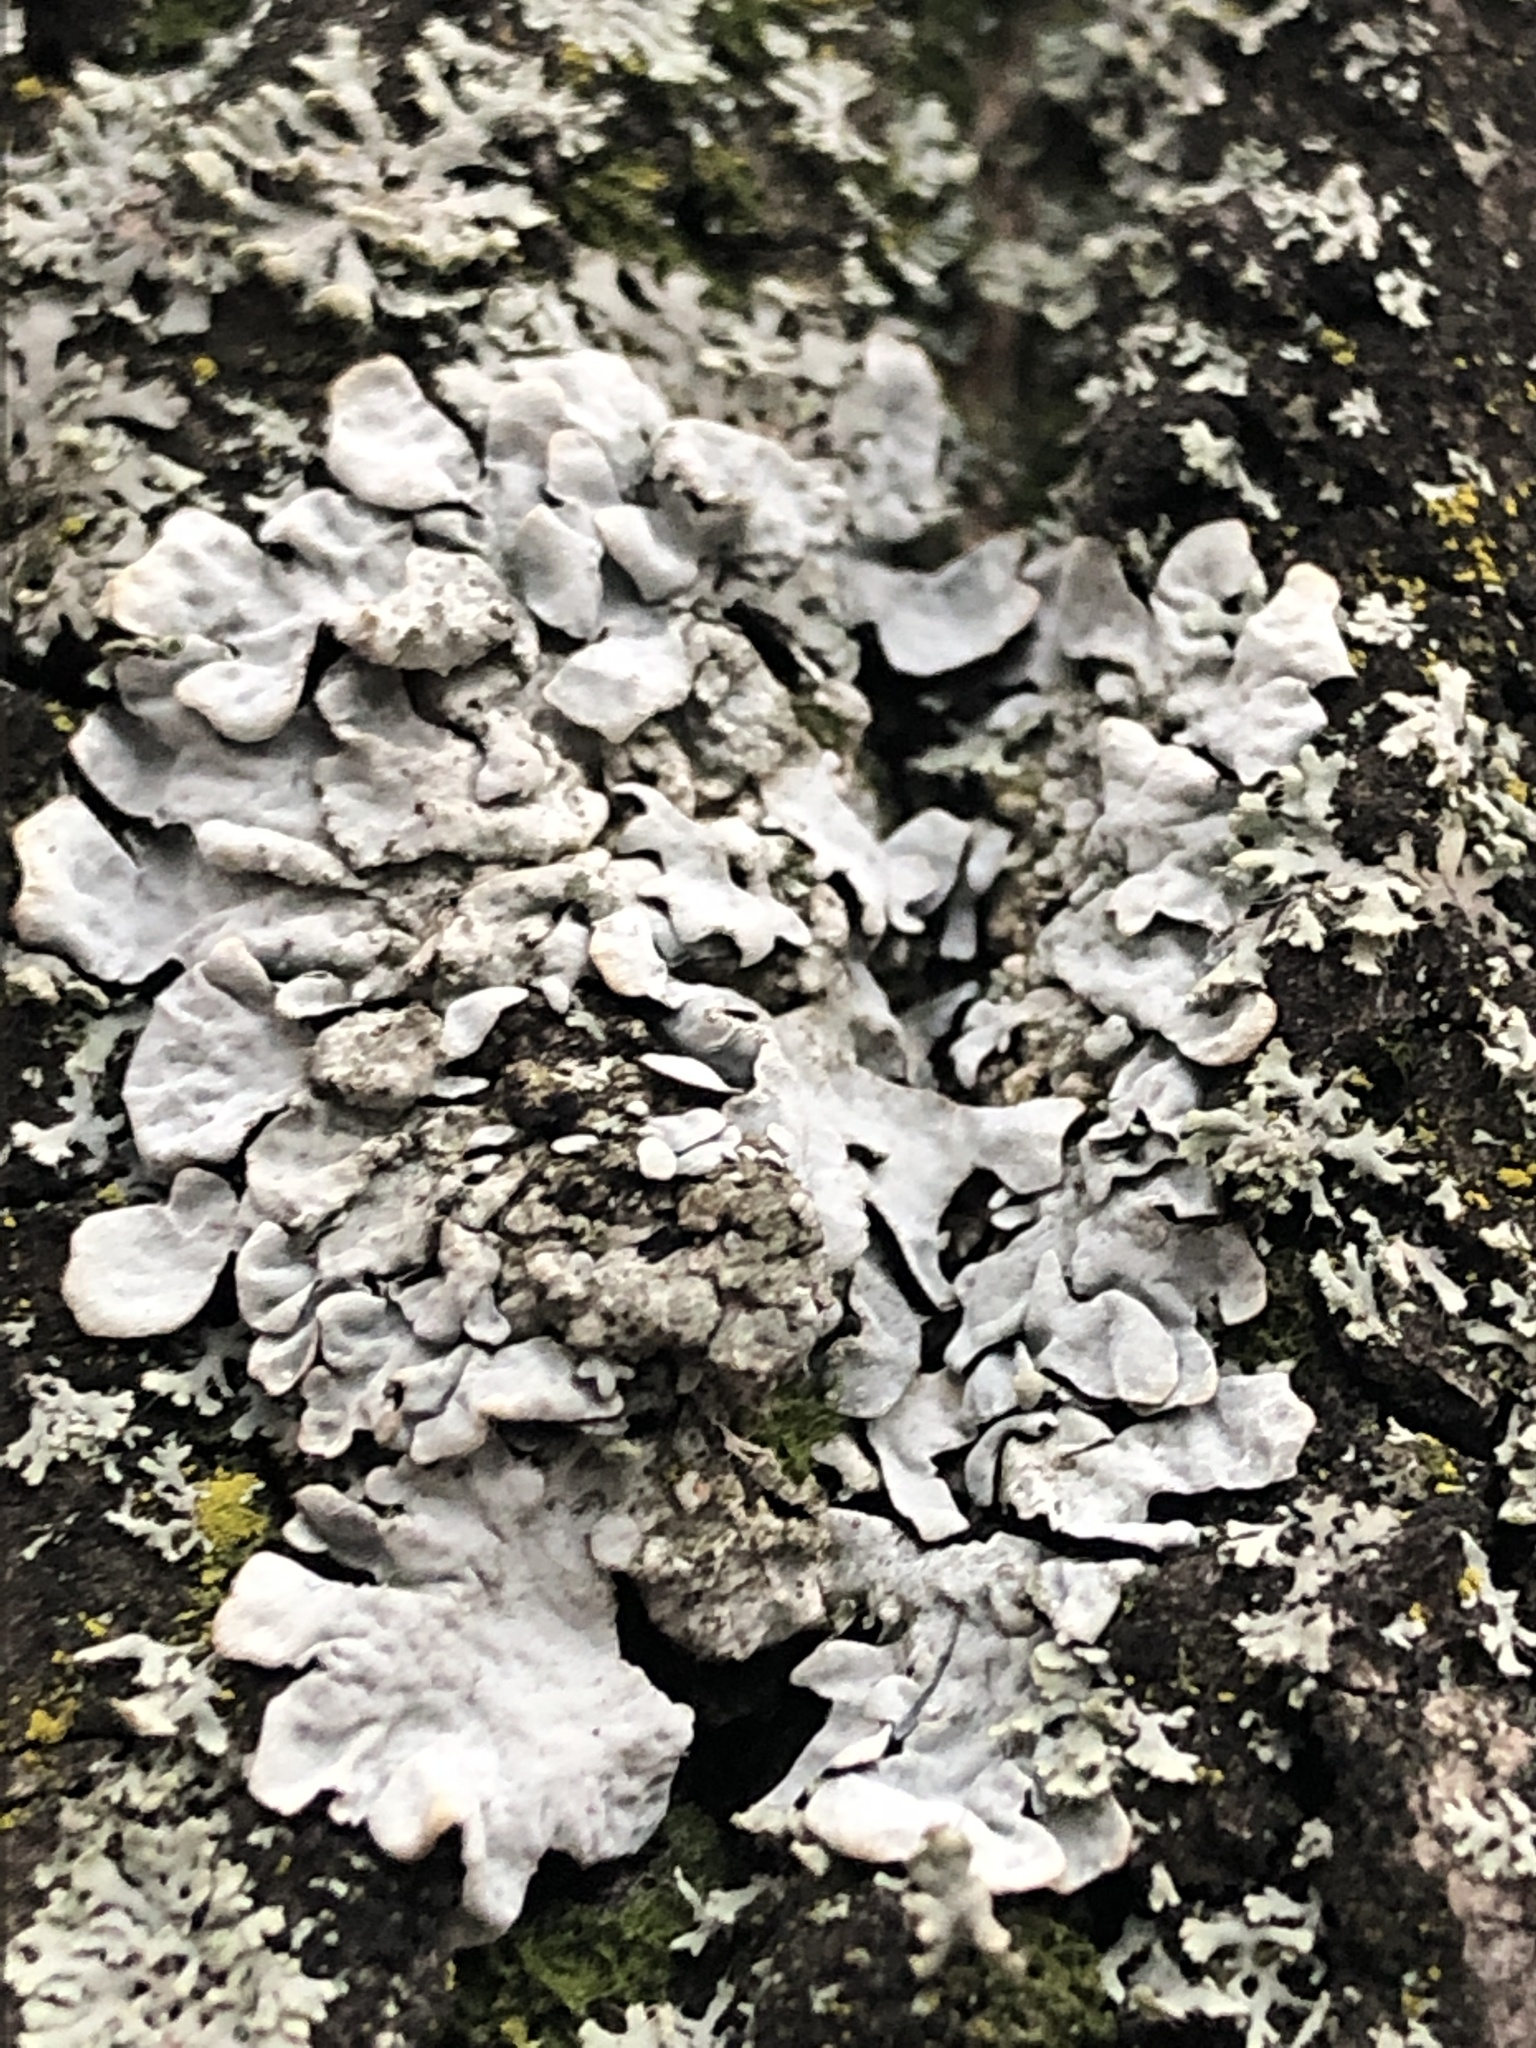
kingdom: Fungi
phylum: Ascomycota
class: Lecanoromycetes
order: Lecanorales
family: Parmeliaceae
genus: Parmelia
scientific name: Parmelia sulcata
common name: Netted shield lichen
